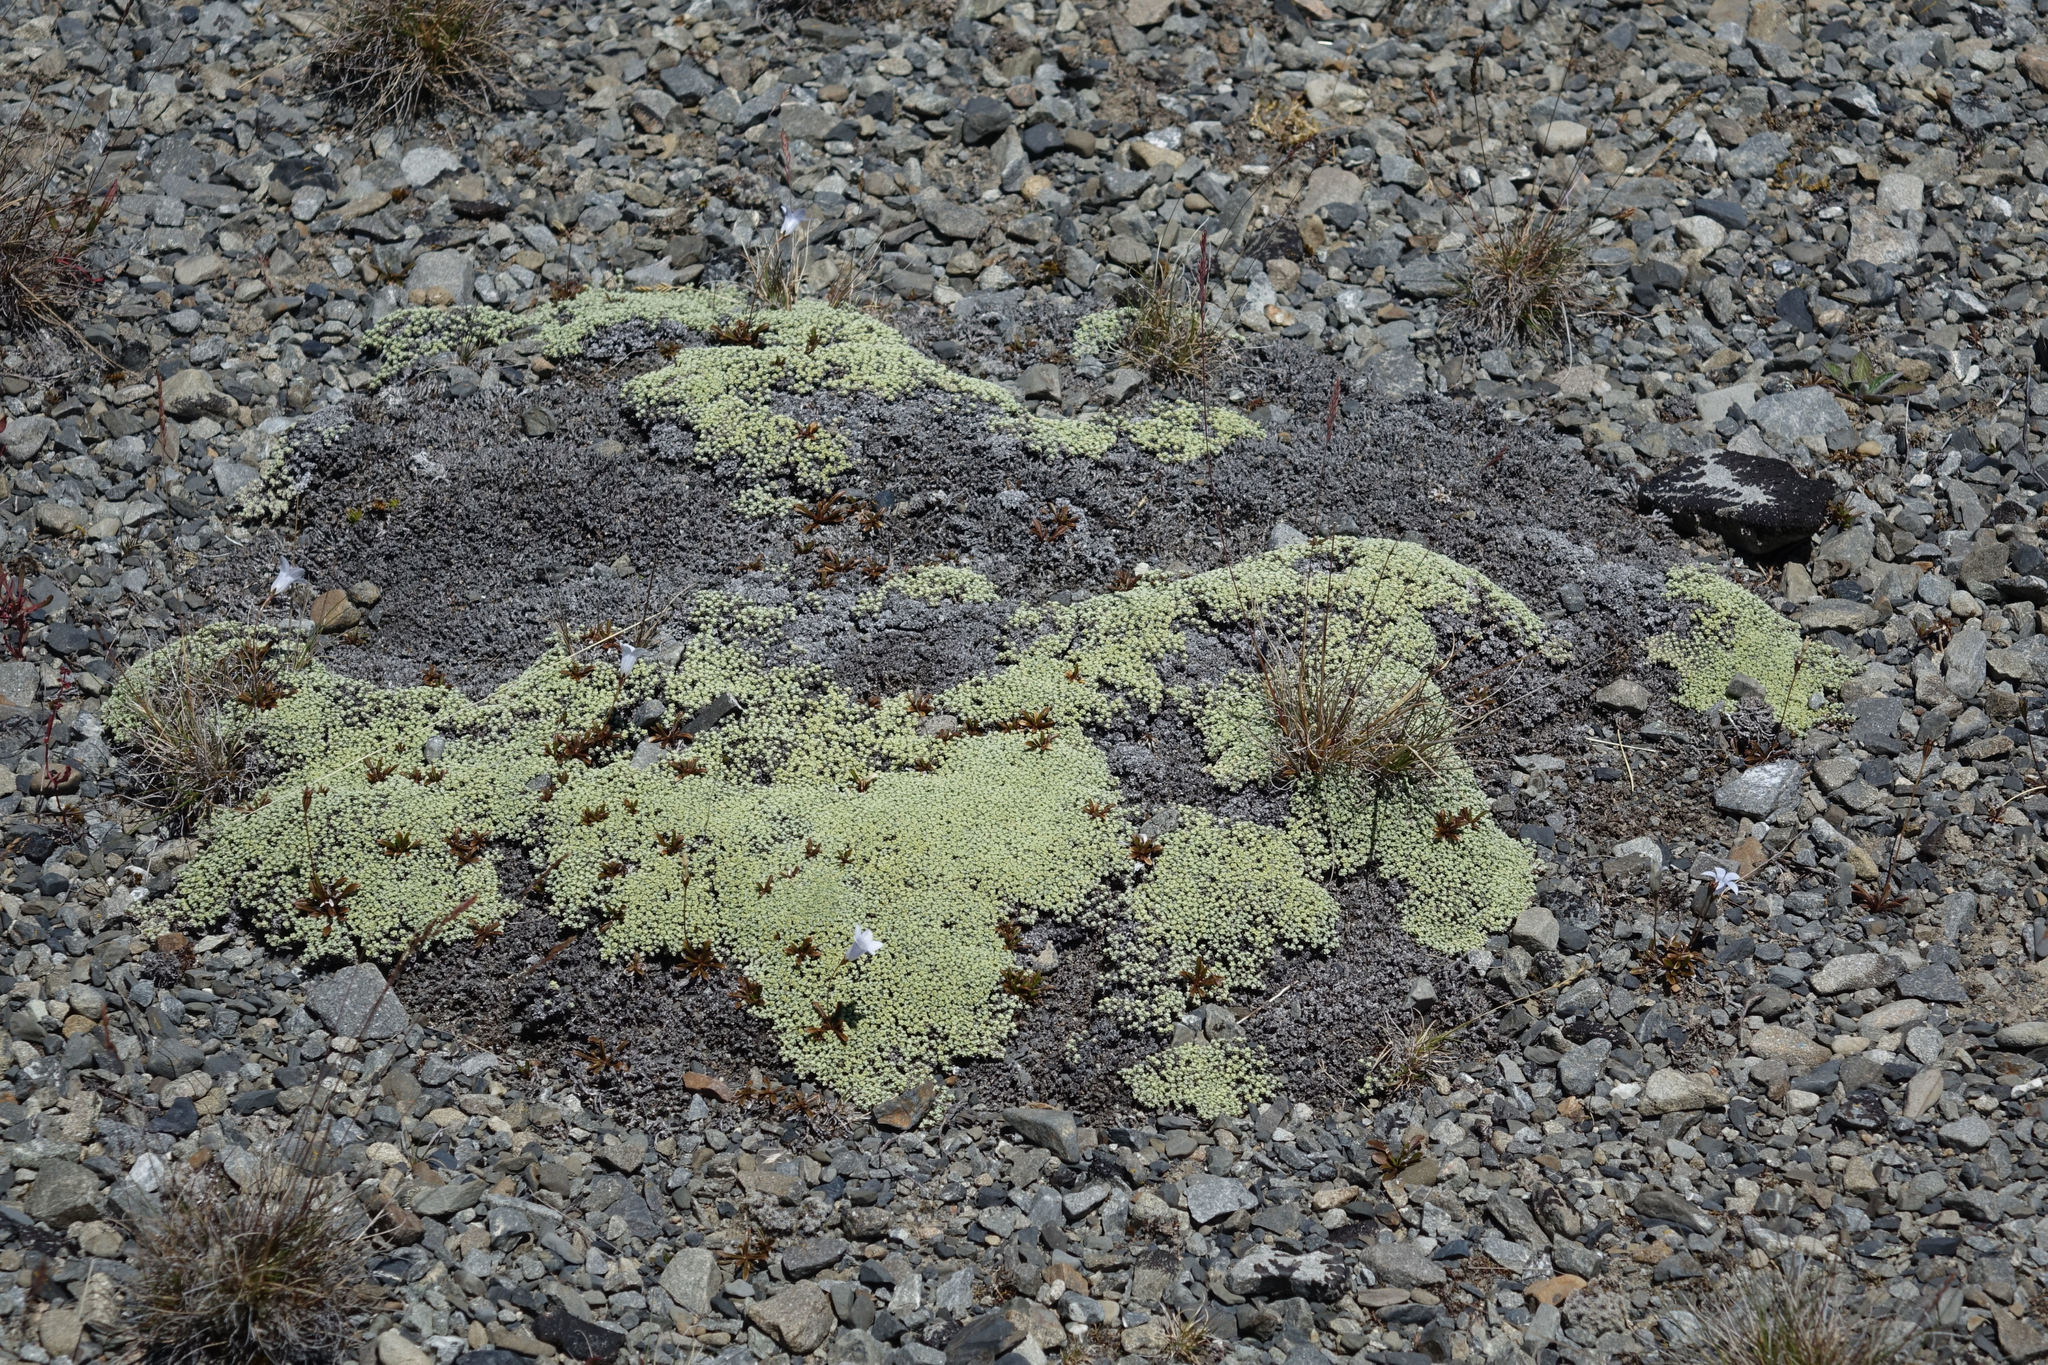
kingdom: Plantae
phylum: Tracheophyta
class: Magnoliopsida
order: Asterales
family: Asteraceae
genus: Raoulia
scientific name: Raoulia australis
